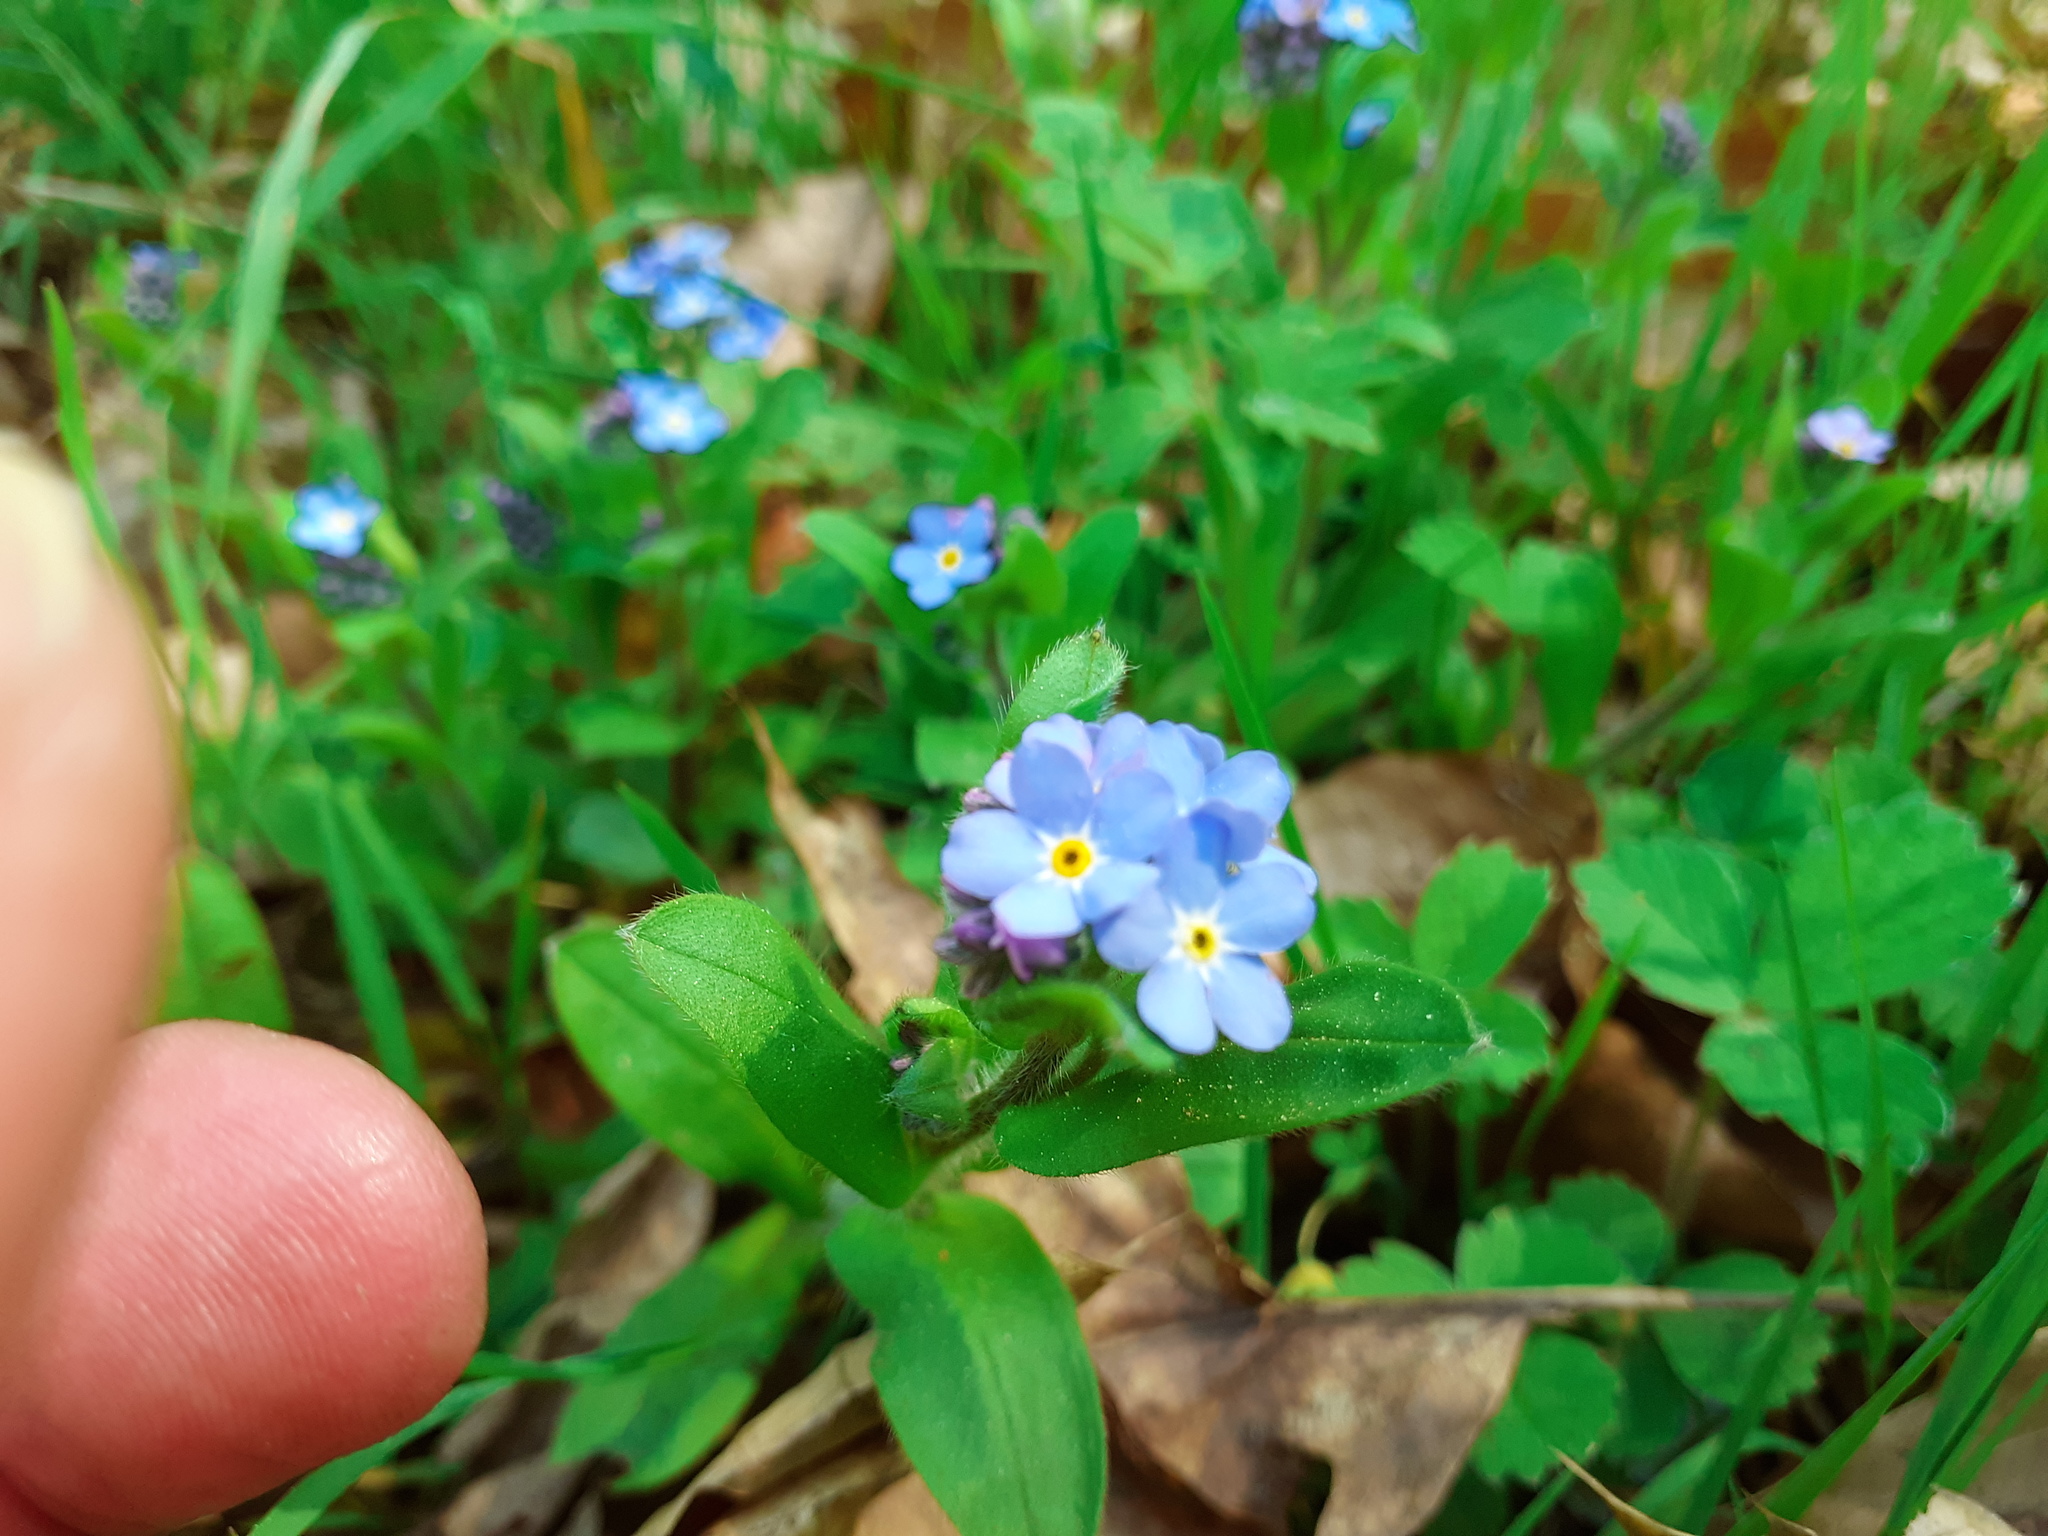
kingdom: Plantae
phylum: Tracheophyta
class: Magnoliopsida
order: Boraginales
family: Boraginaceae
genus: Myosotis
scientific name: Myosotis sylvatica
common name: Wood forget-me-not
